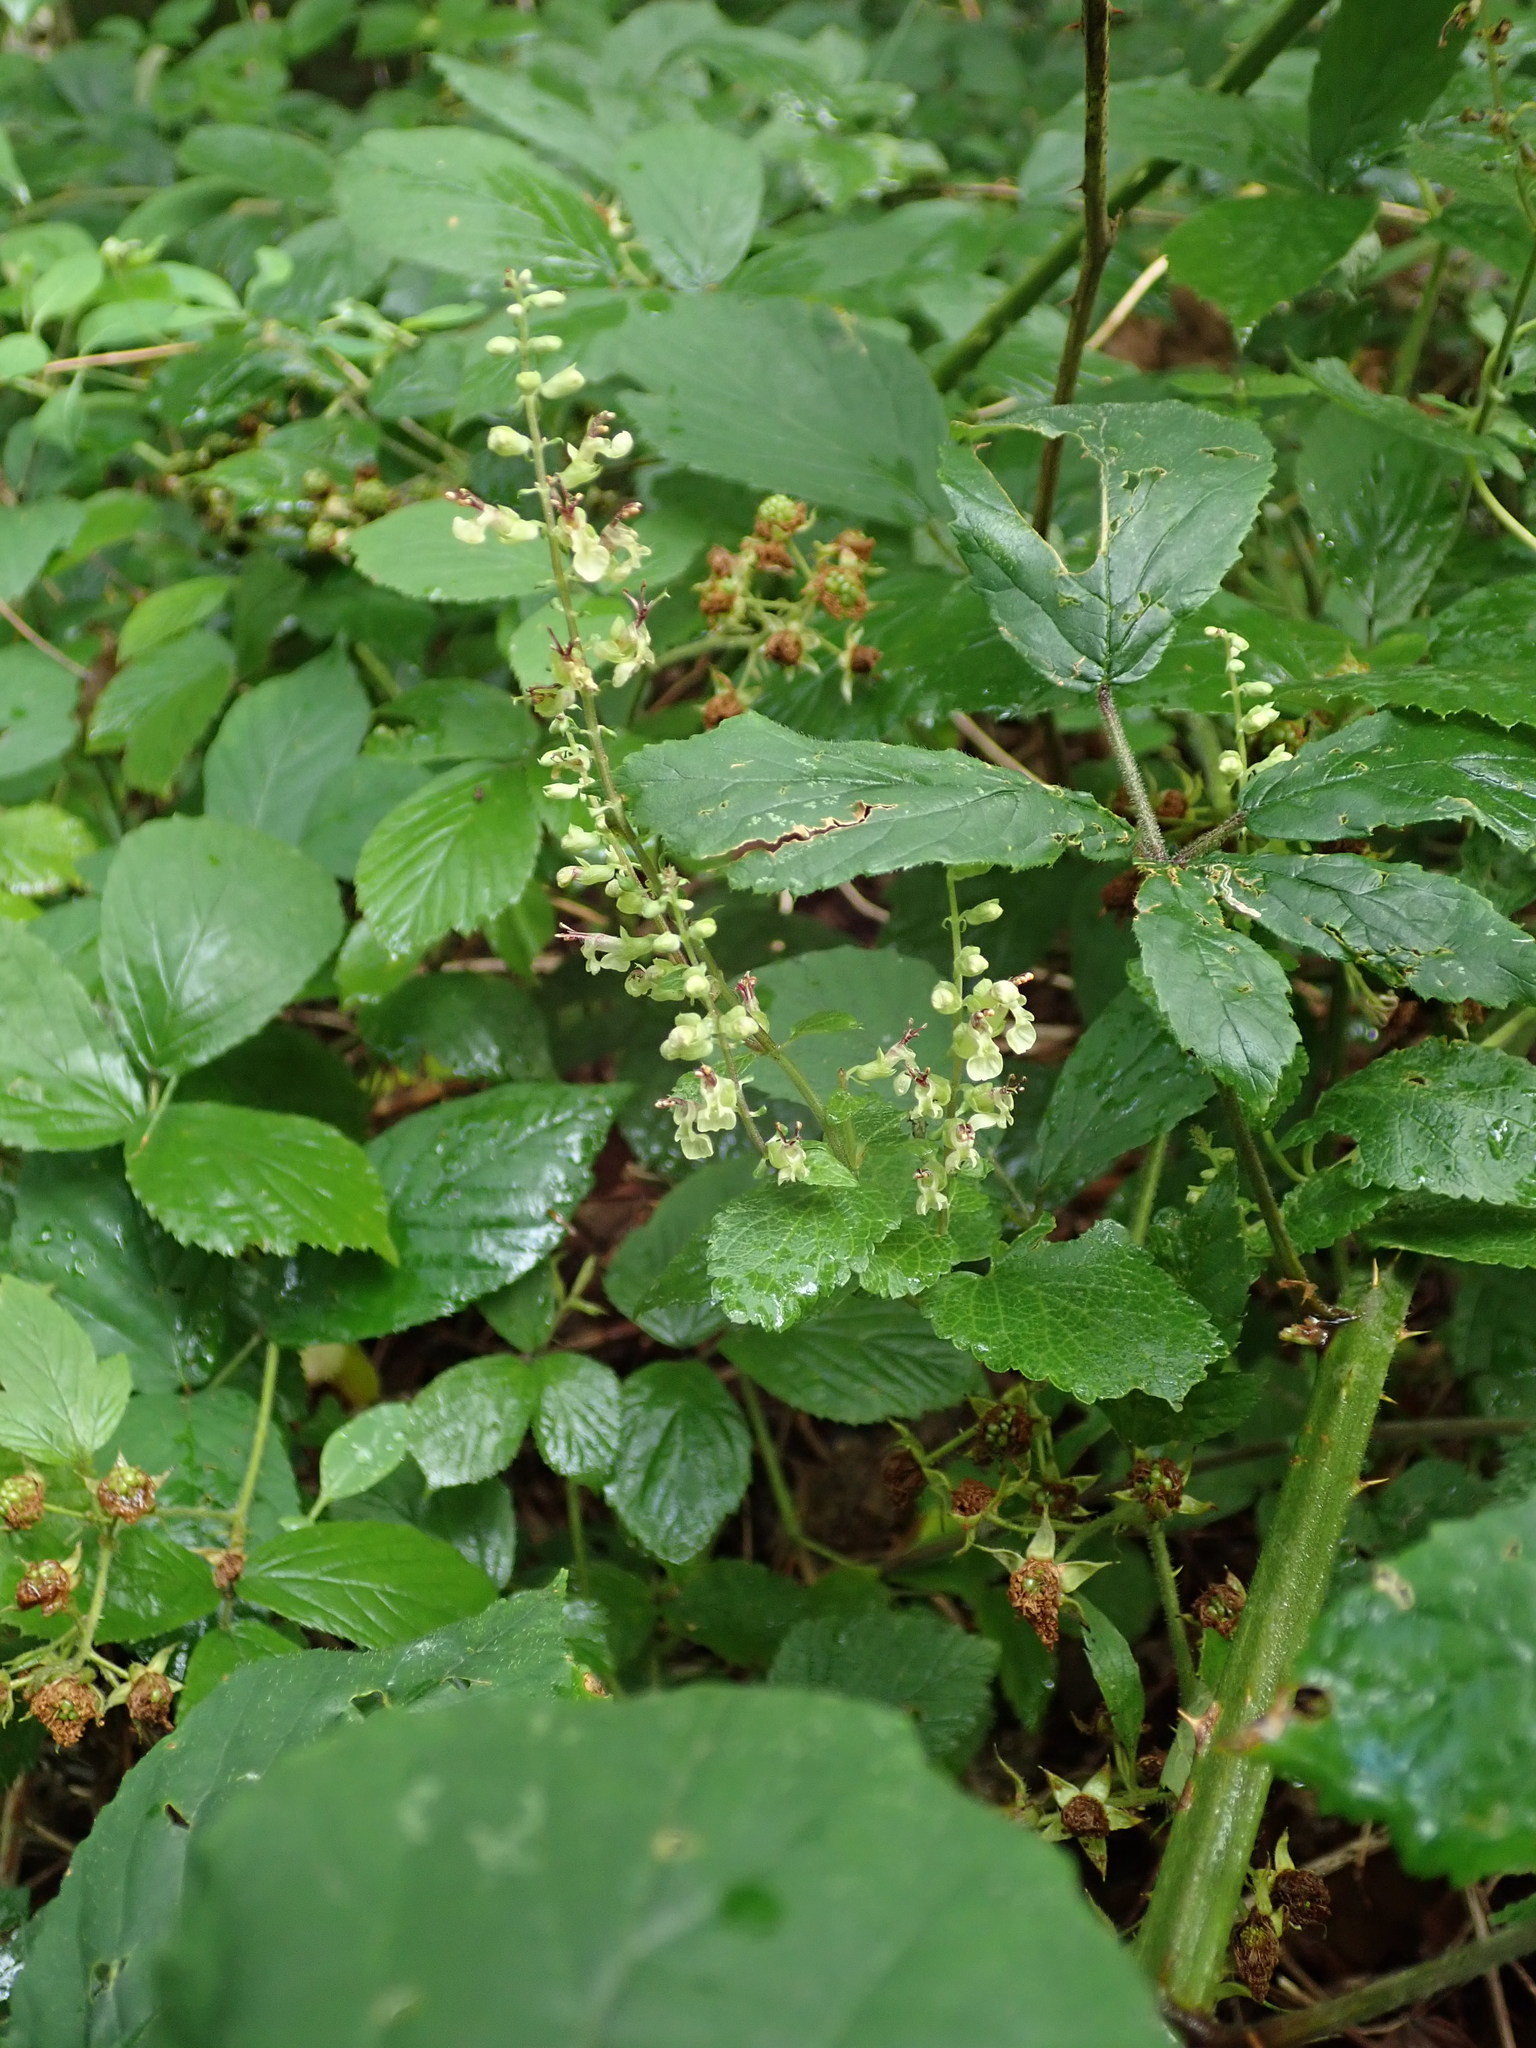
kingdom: Plantae
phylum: Tracheophyta
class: Magnoliopsida
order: Lamiales
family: Lamiaceae
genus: Teucrium
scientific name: Teucrium scorodonia
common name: Woodland germander
